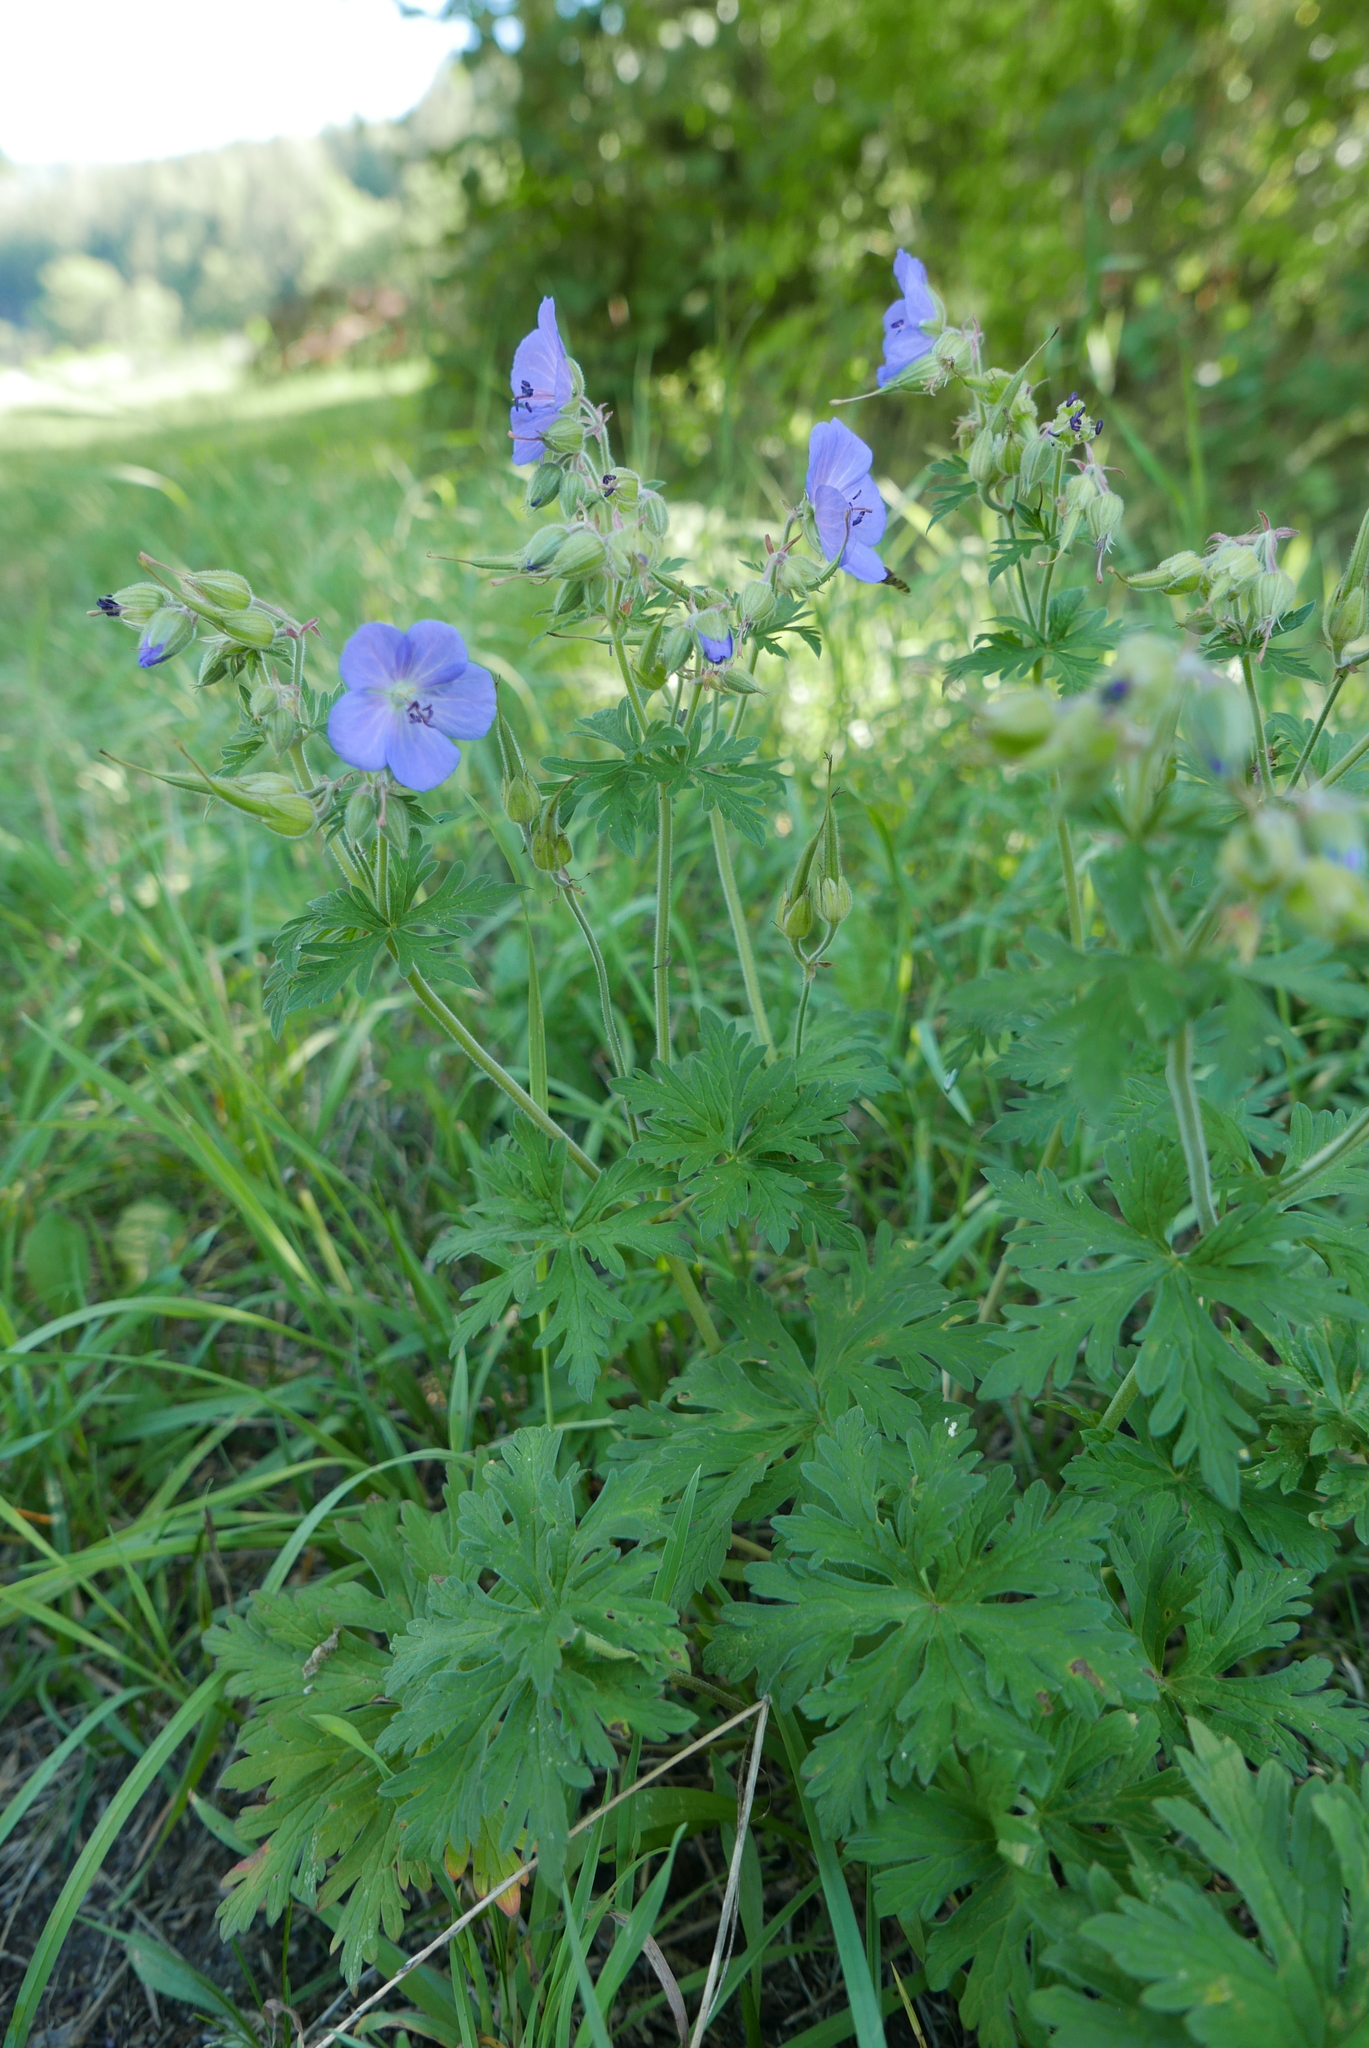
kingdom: Plantae
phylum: Tracheophyta
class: Magnoliopsida
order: Geraniales
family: Geraniaceae
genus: Geranium
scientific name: Geranium pratense
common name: Meadow crane's-bill
